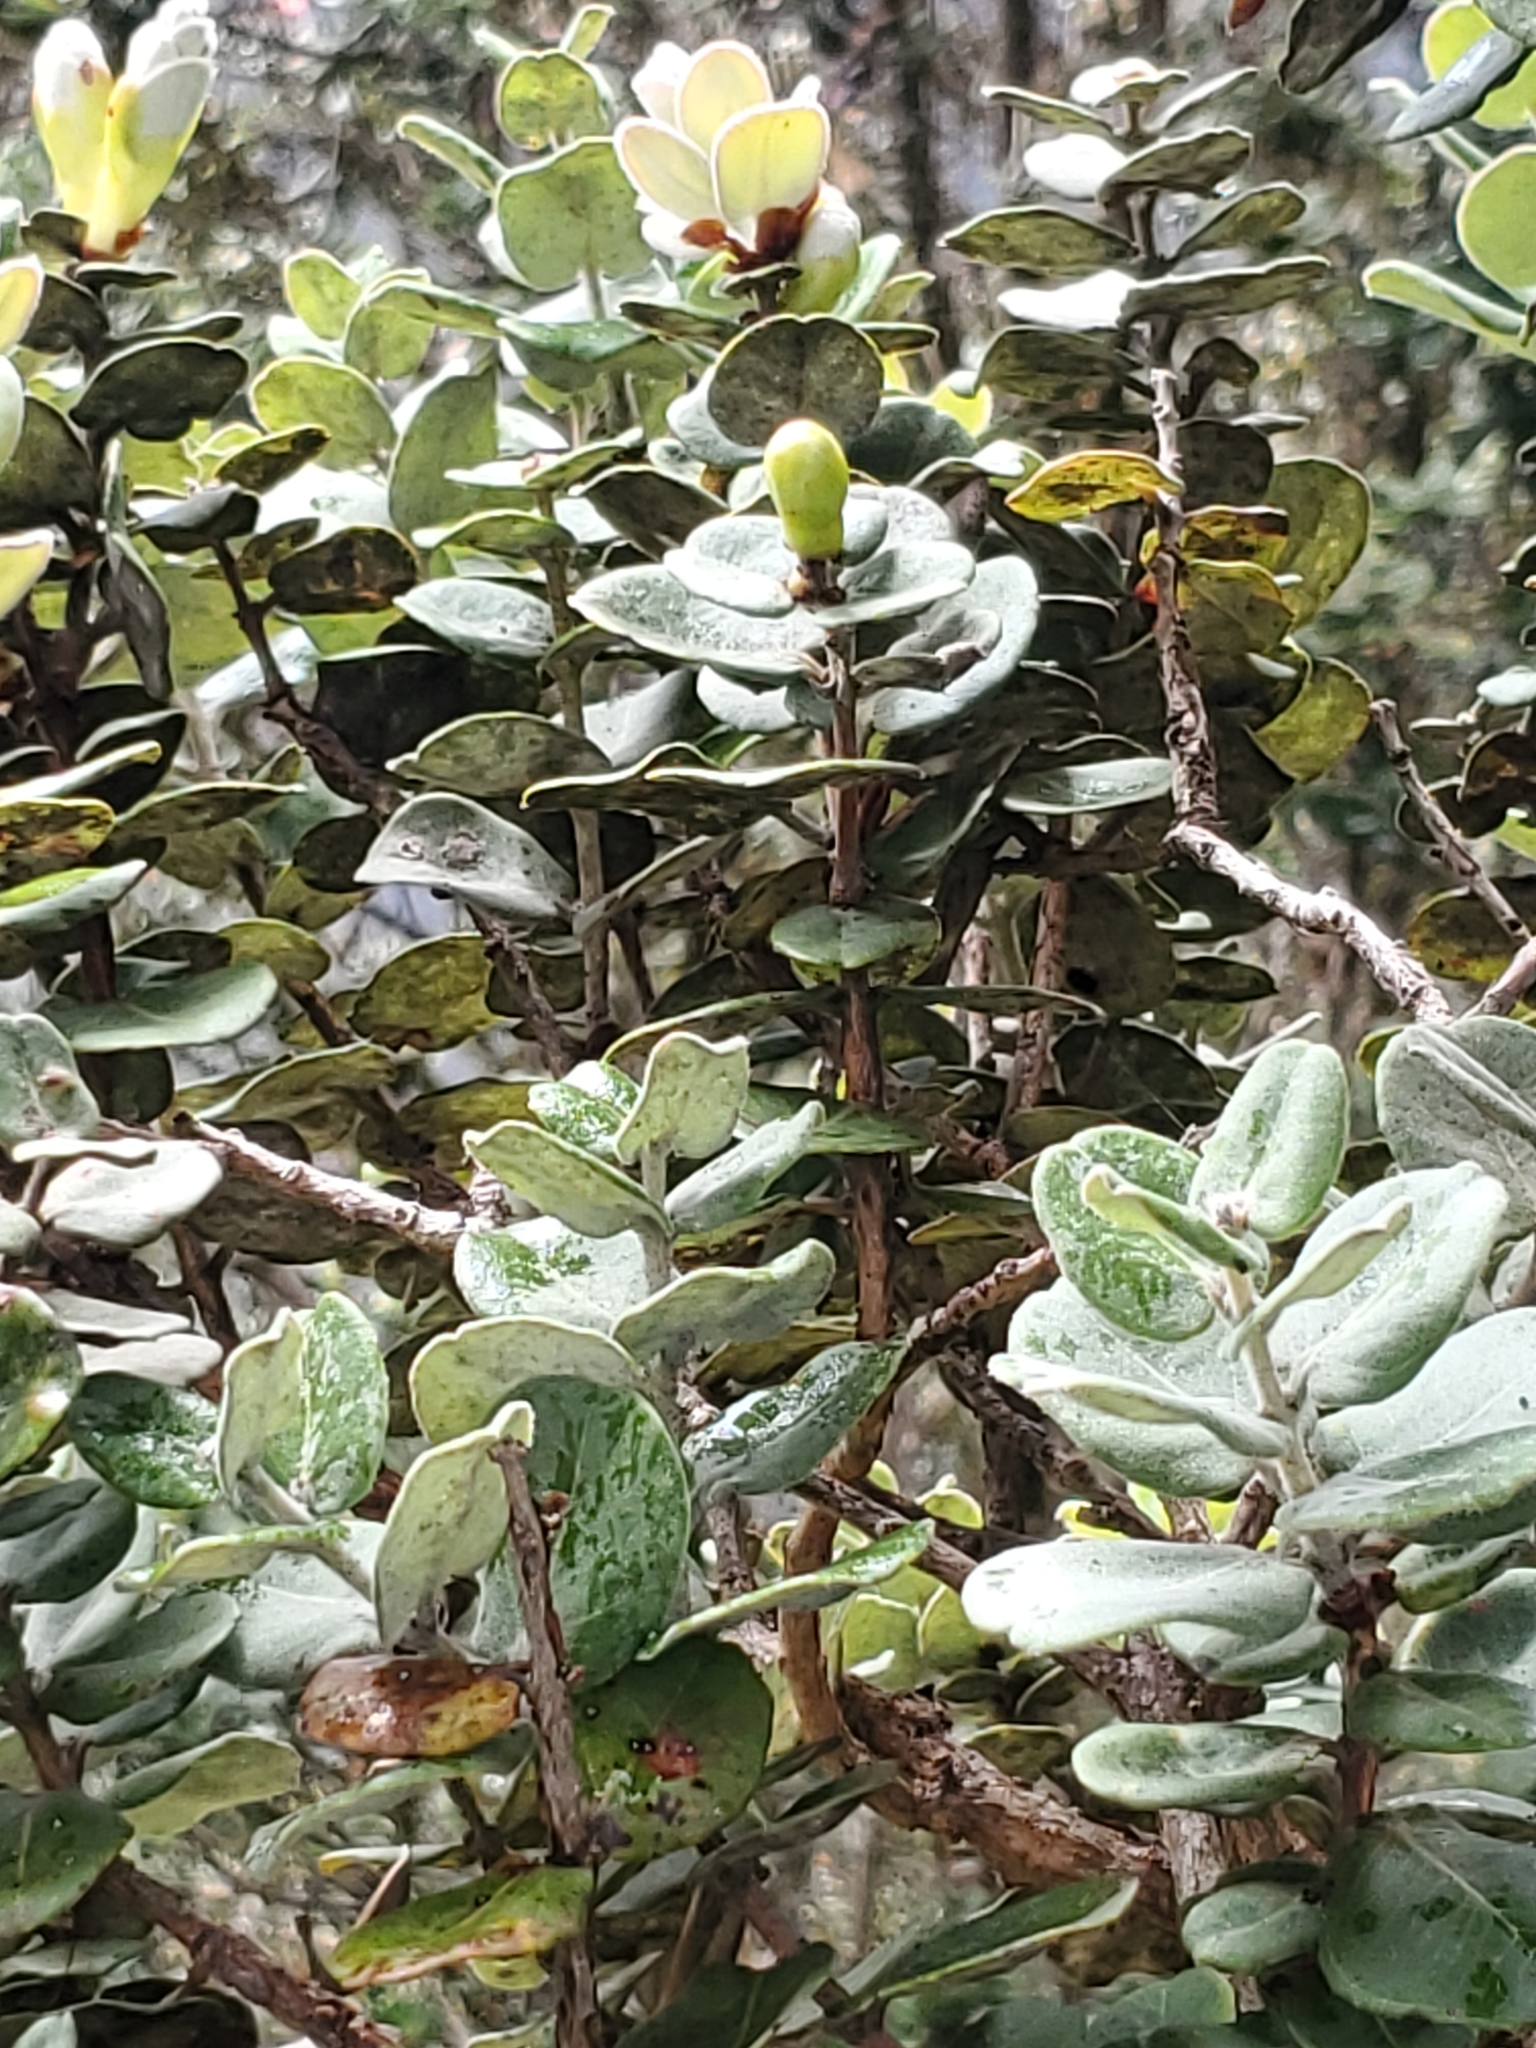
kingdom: Plantae
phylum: Tracheophyta
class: Magnoliopsida
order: Myrtales
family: Myrtaceae
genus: Metrosideros
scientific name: Metrosideros polymorpha
